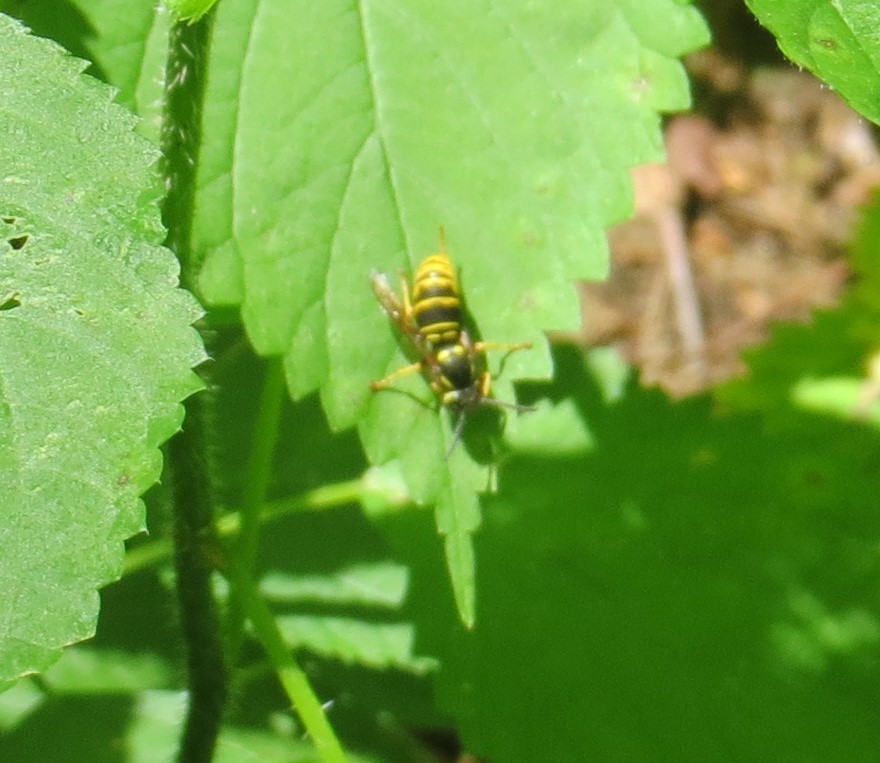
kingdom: Animalia
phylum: Arthropoda
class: Insecta
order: Hymenoptera
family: Vespidae
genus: Vespula
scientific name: Vespula vidua
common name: Widow yellowjacket
